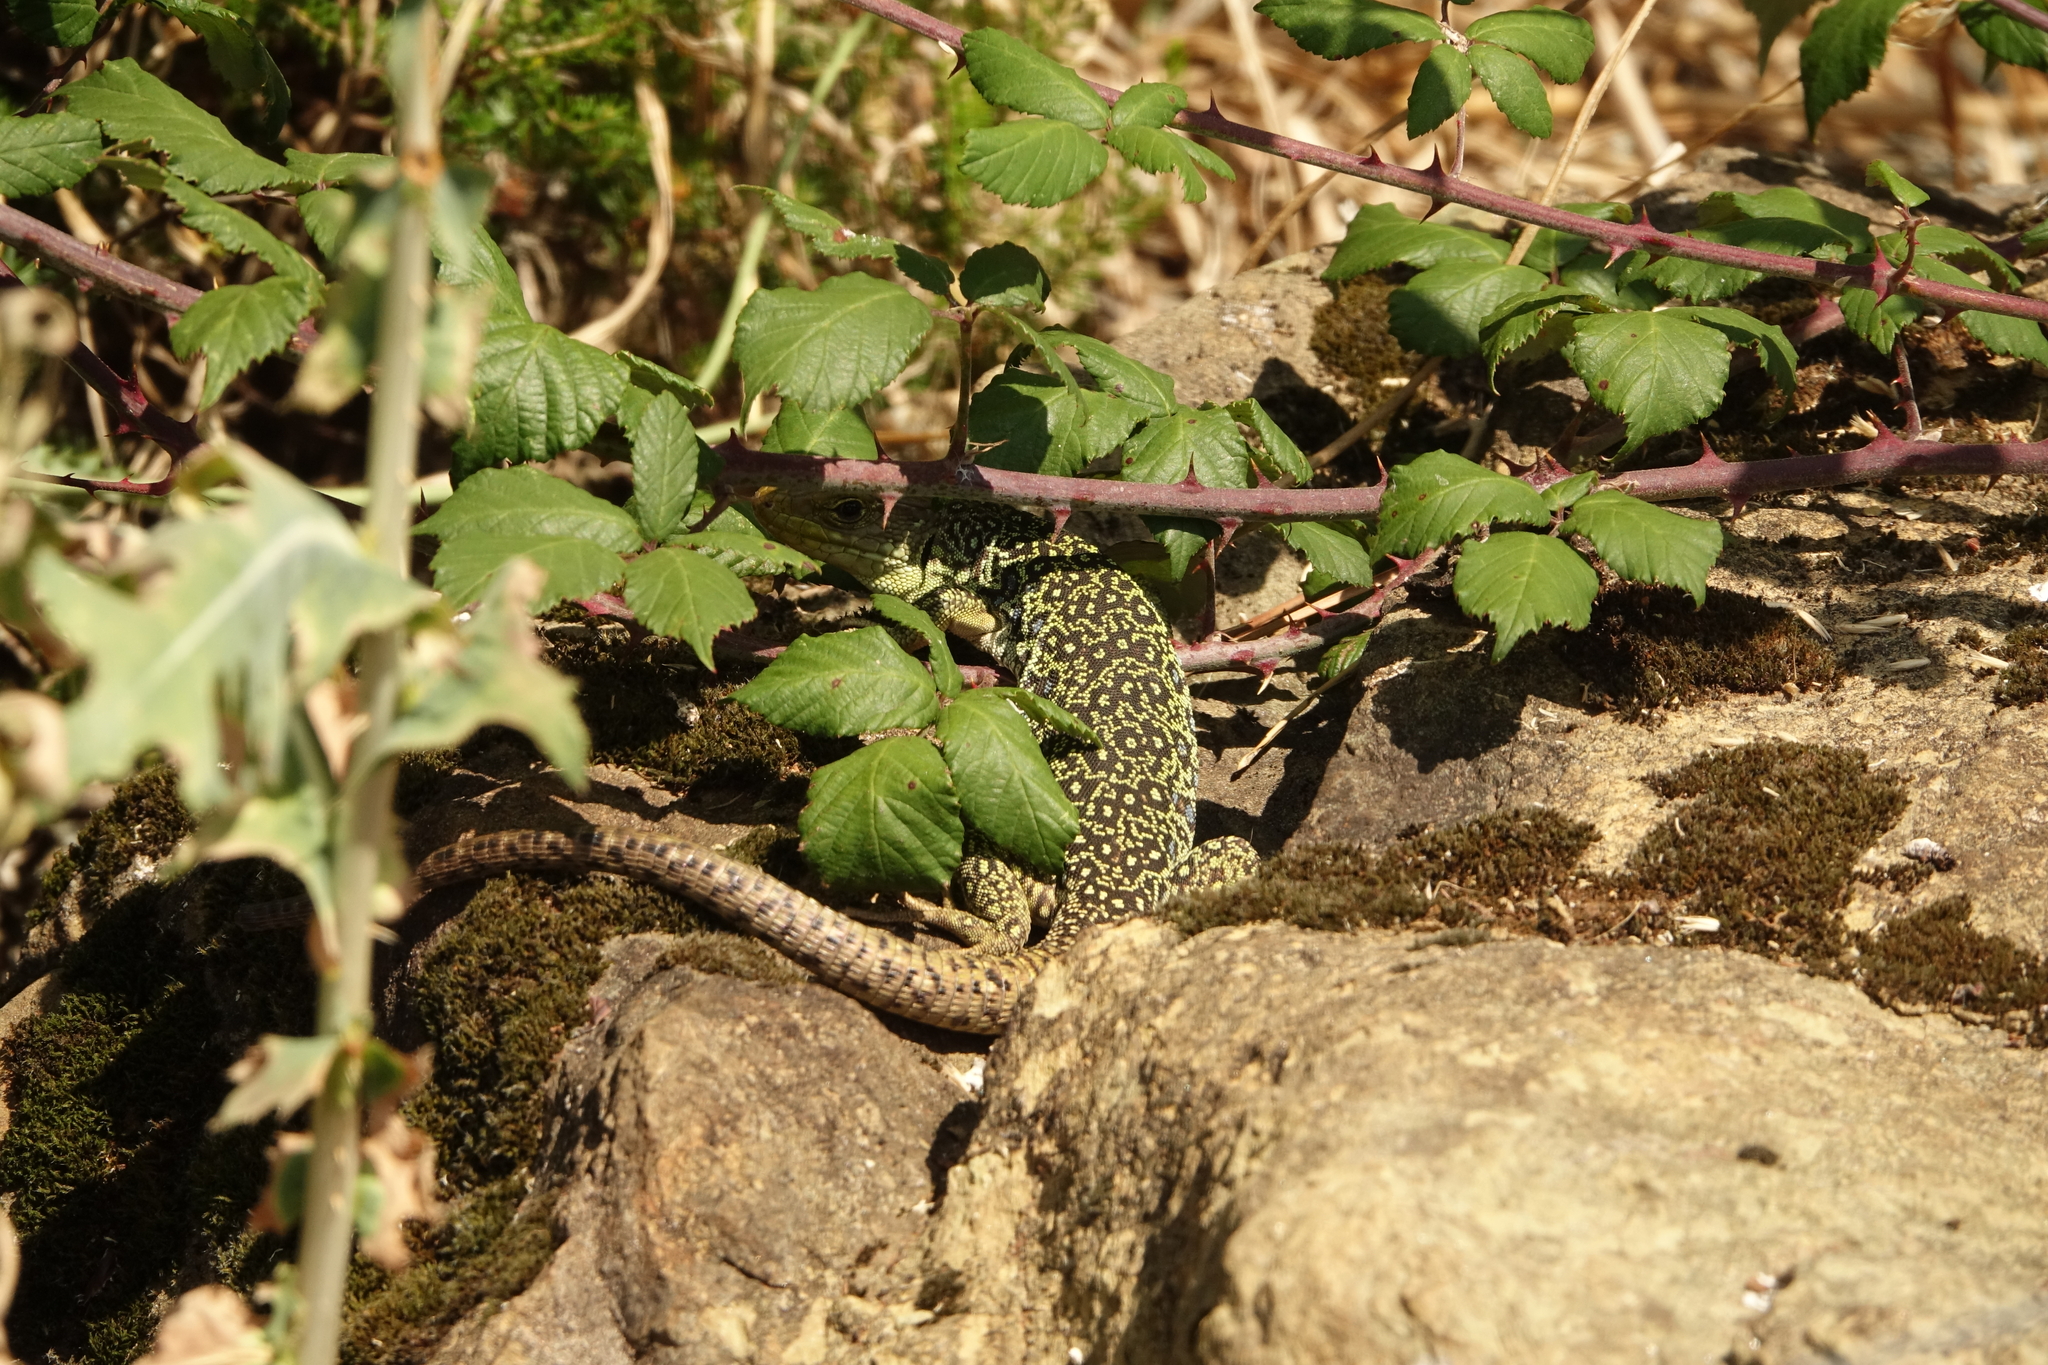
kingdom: Animalia
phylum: Chordata
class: Squamata
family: Lacertidae
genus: Timon
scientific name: Timon lepidus
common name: Ocellated lizard
